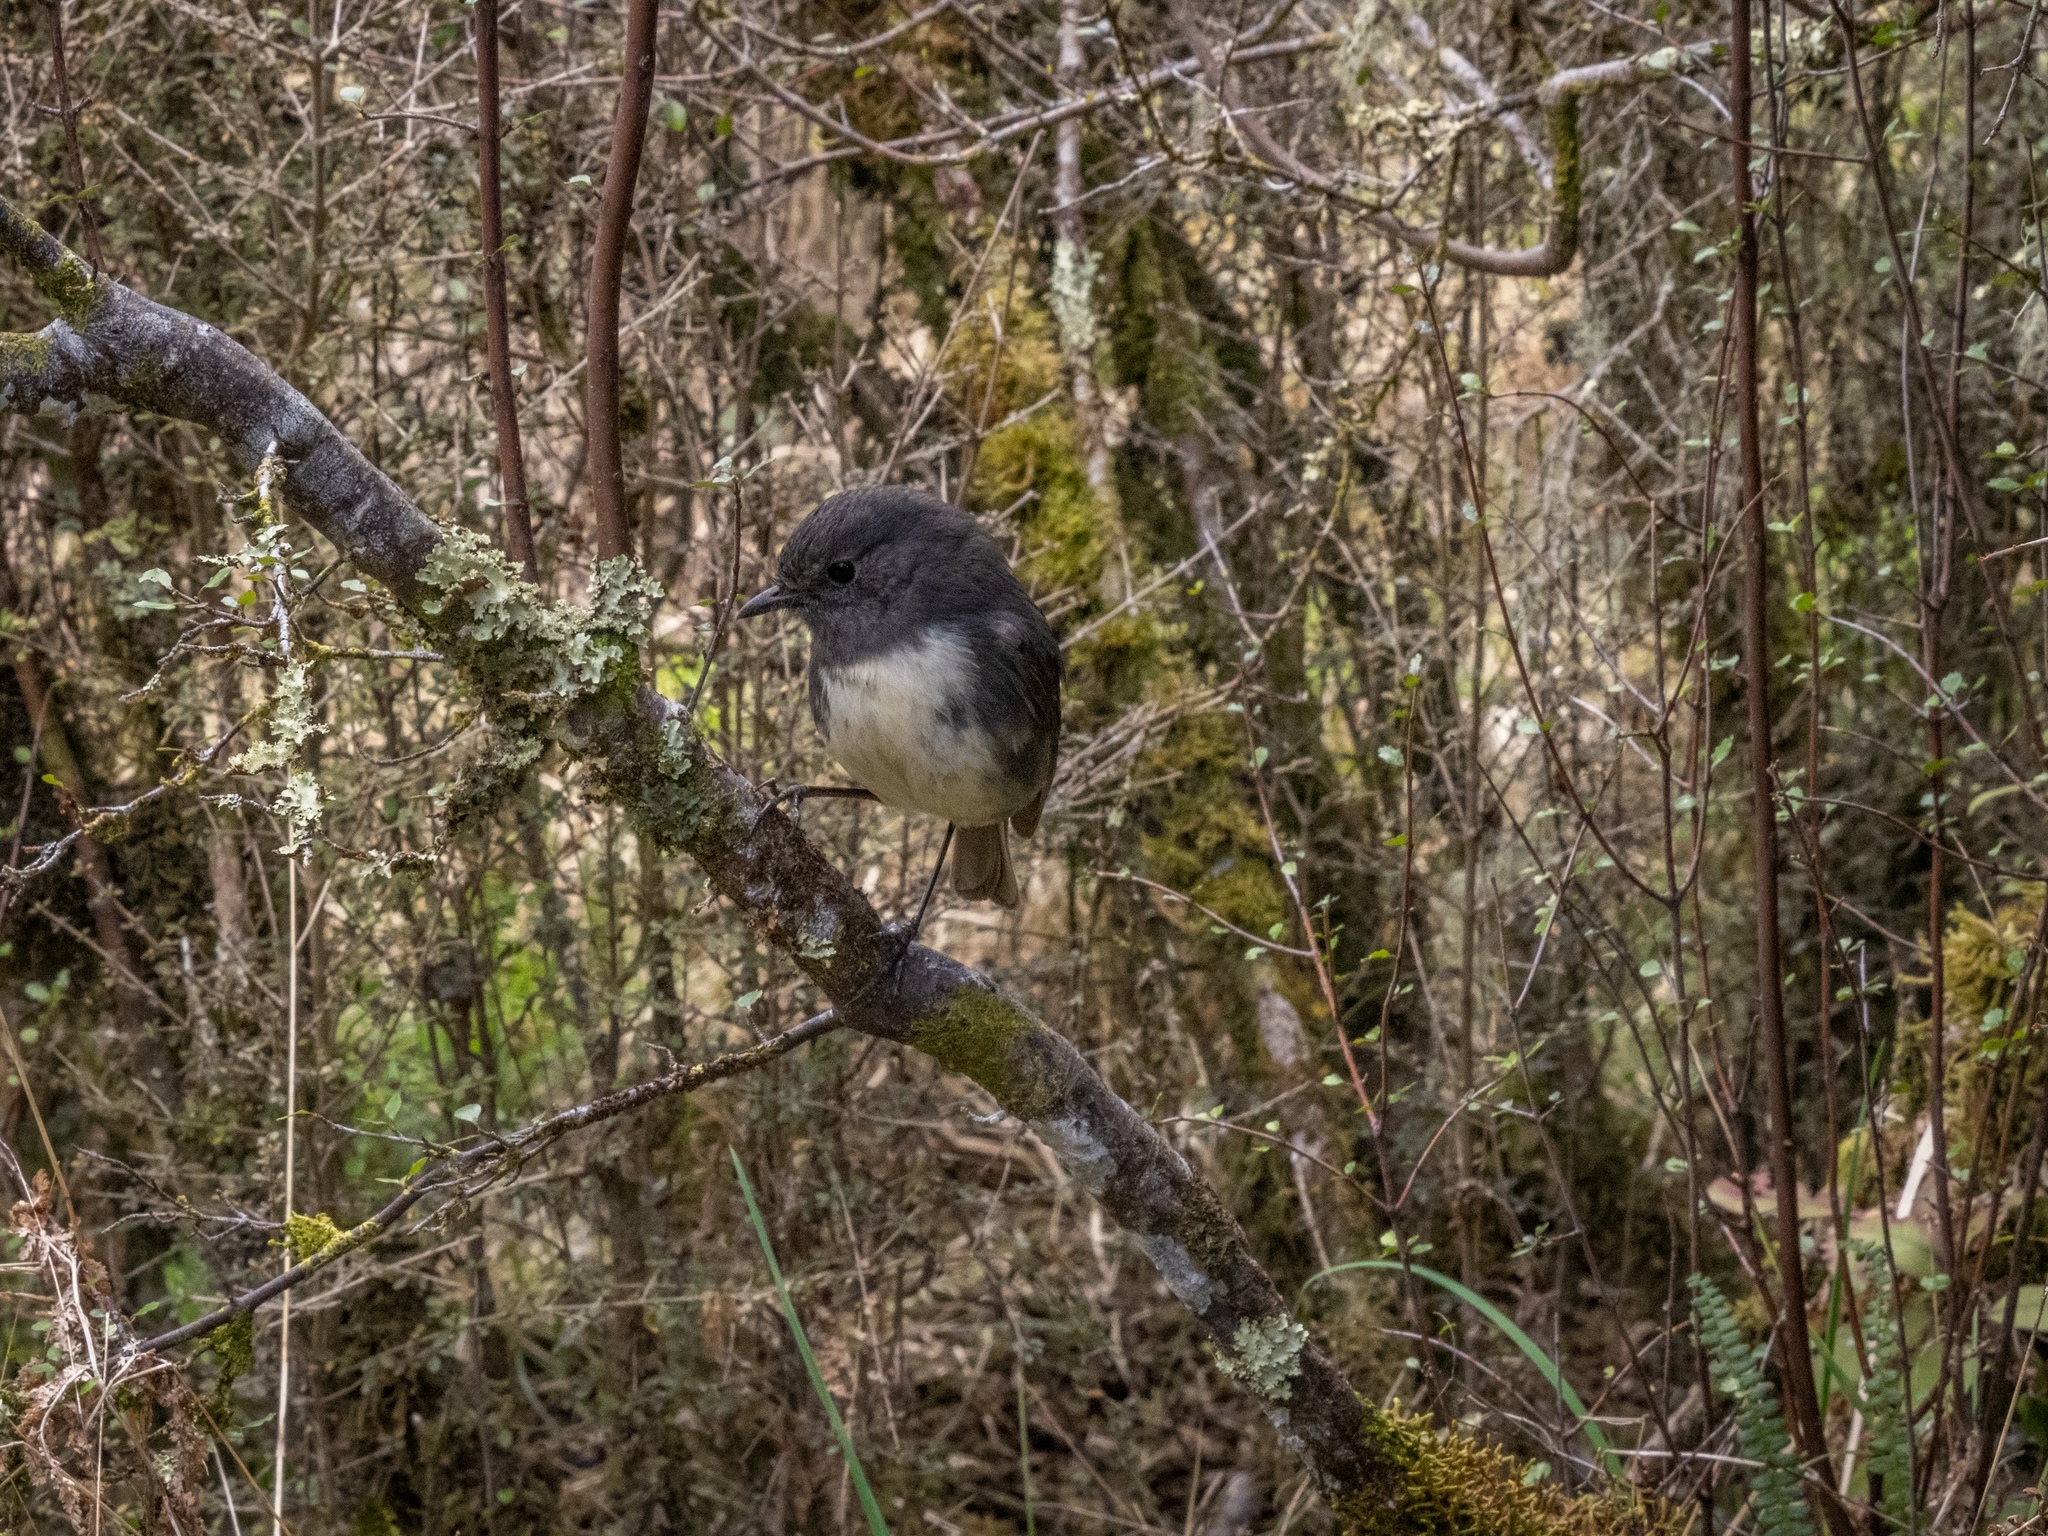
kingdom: Animalia
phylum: Chordata
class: Aves
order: Passeriformes
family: Petroicidae
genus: Petroica
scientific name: Petroica australis
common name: New zealand robin
